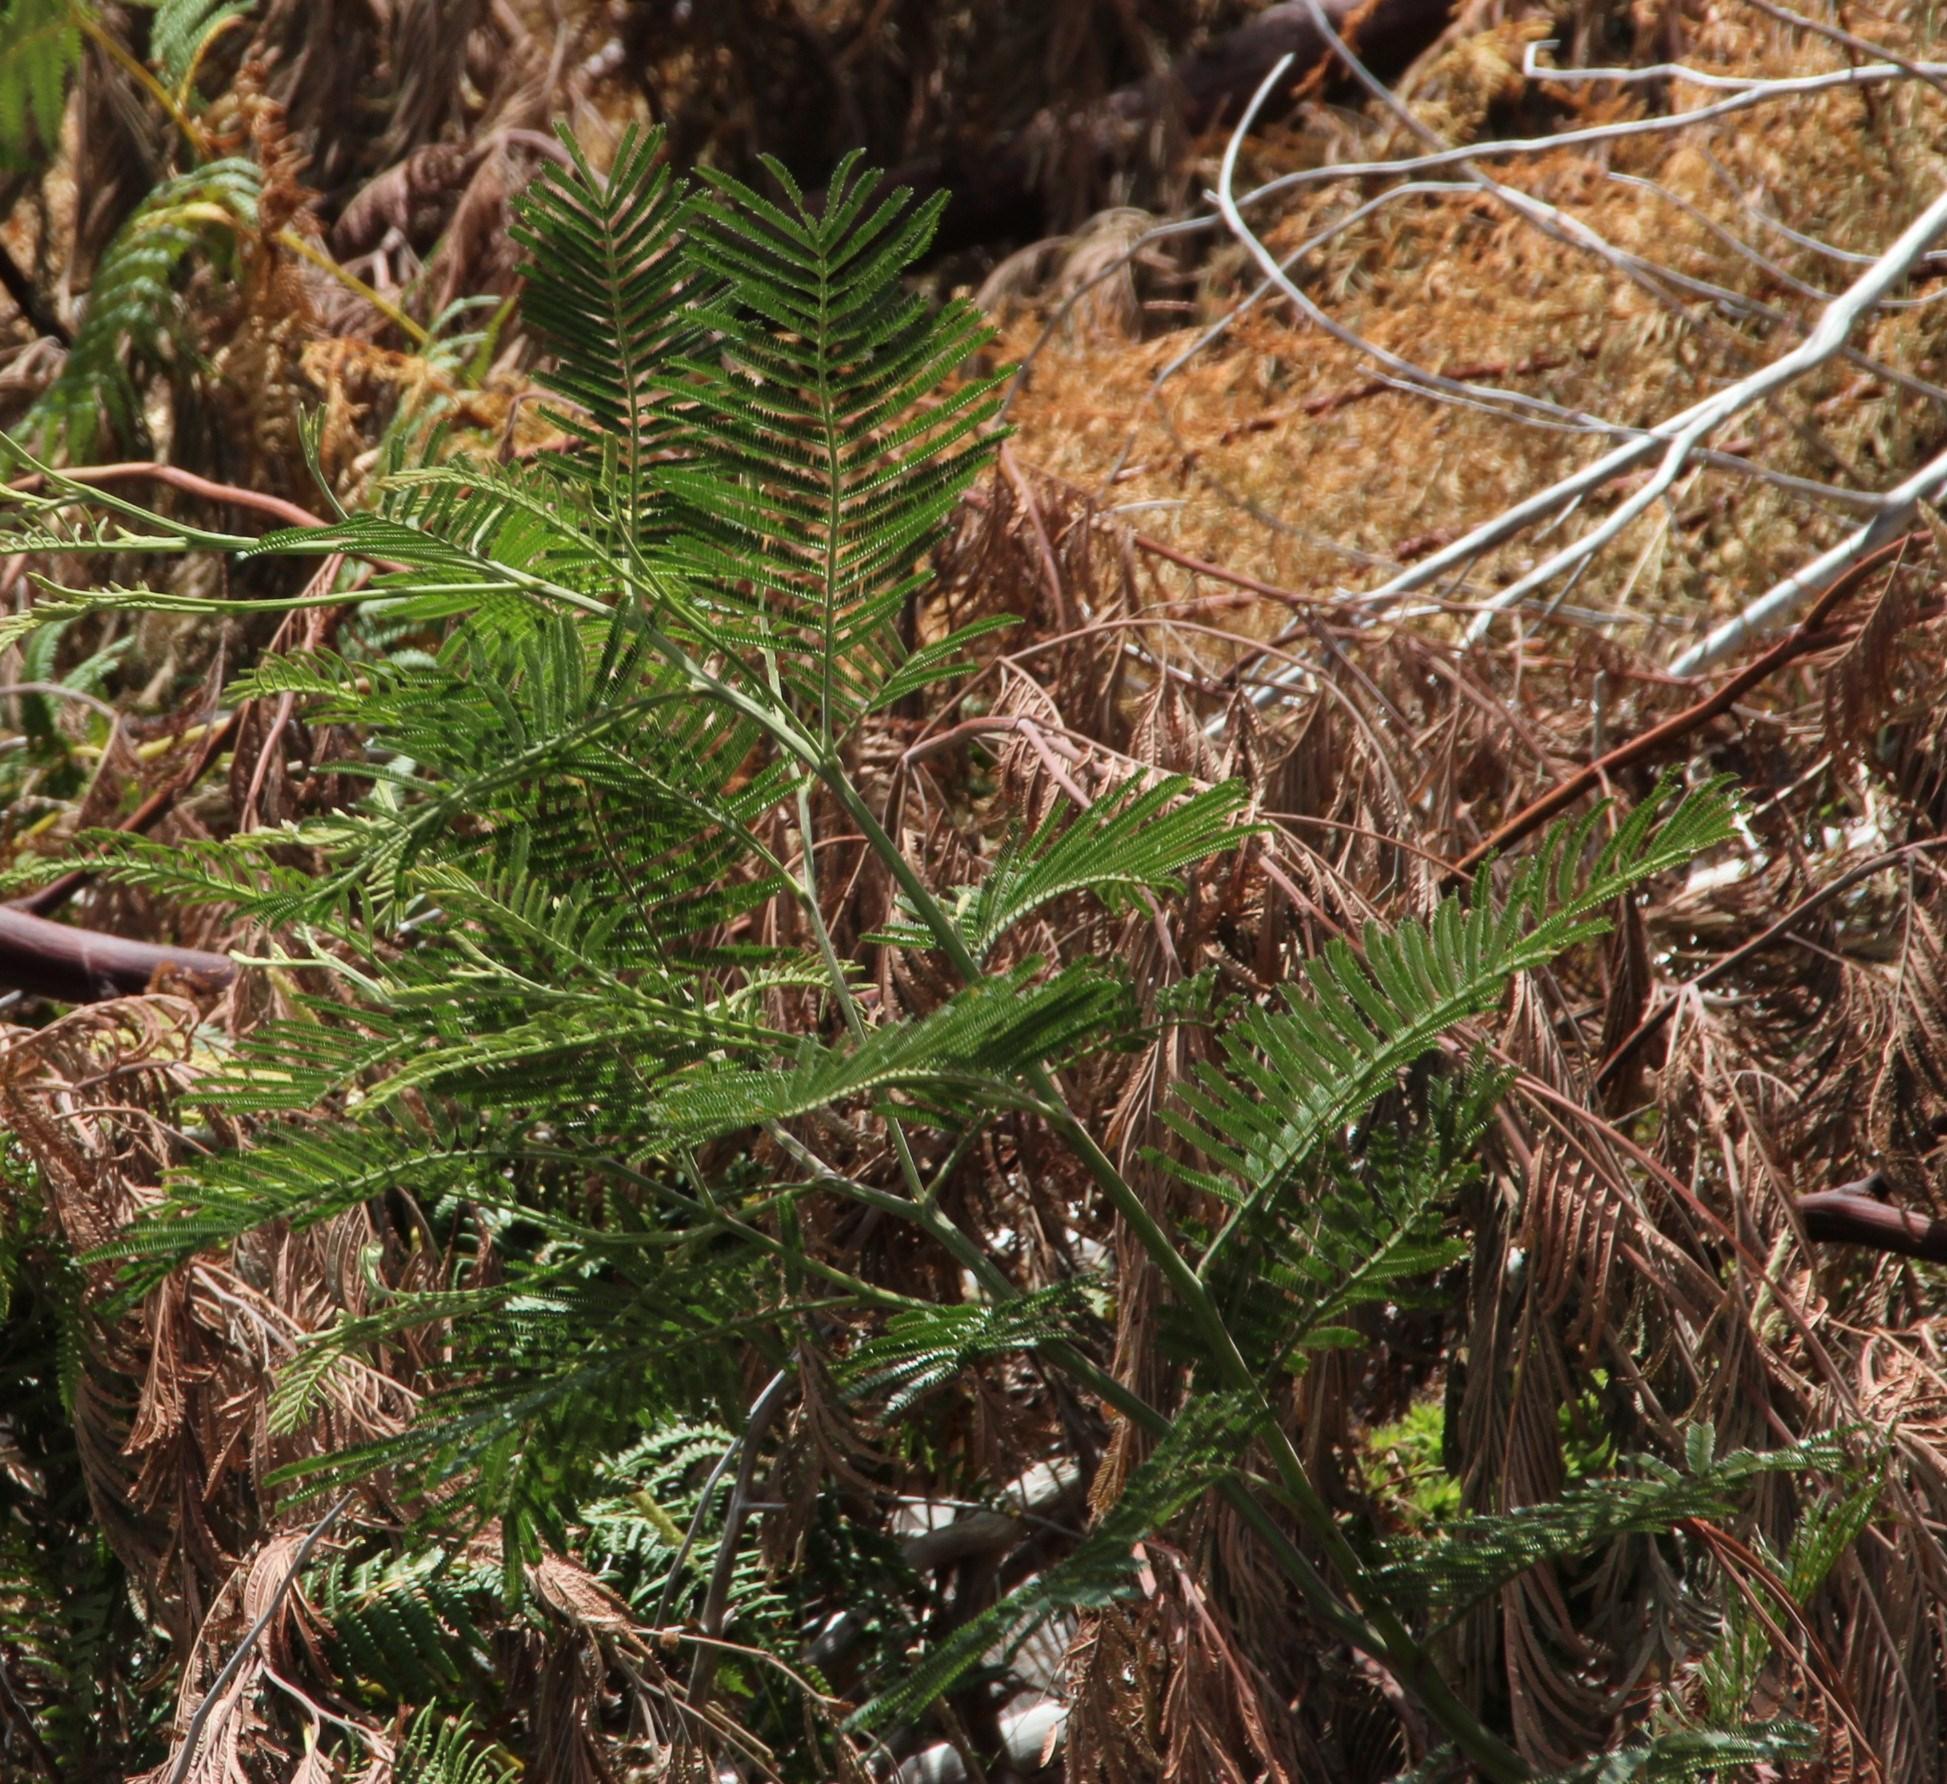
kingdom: Plantae
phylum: Tracheophyta
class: Magnoliopsida
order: Fabales
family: Fabaceae
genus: Acacia
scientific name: Acacia mearnsii
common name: Black wattle
